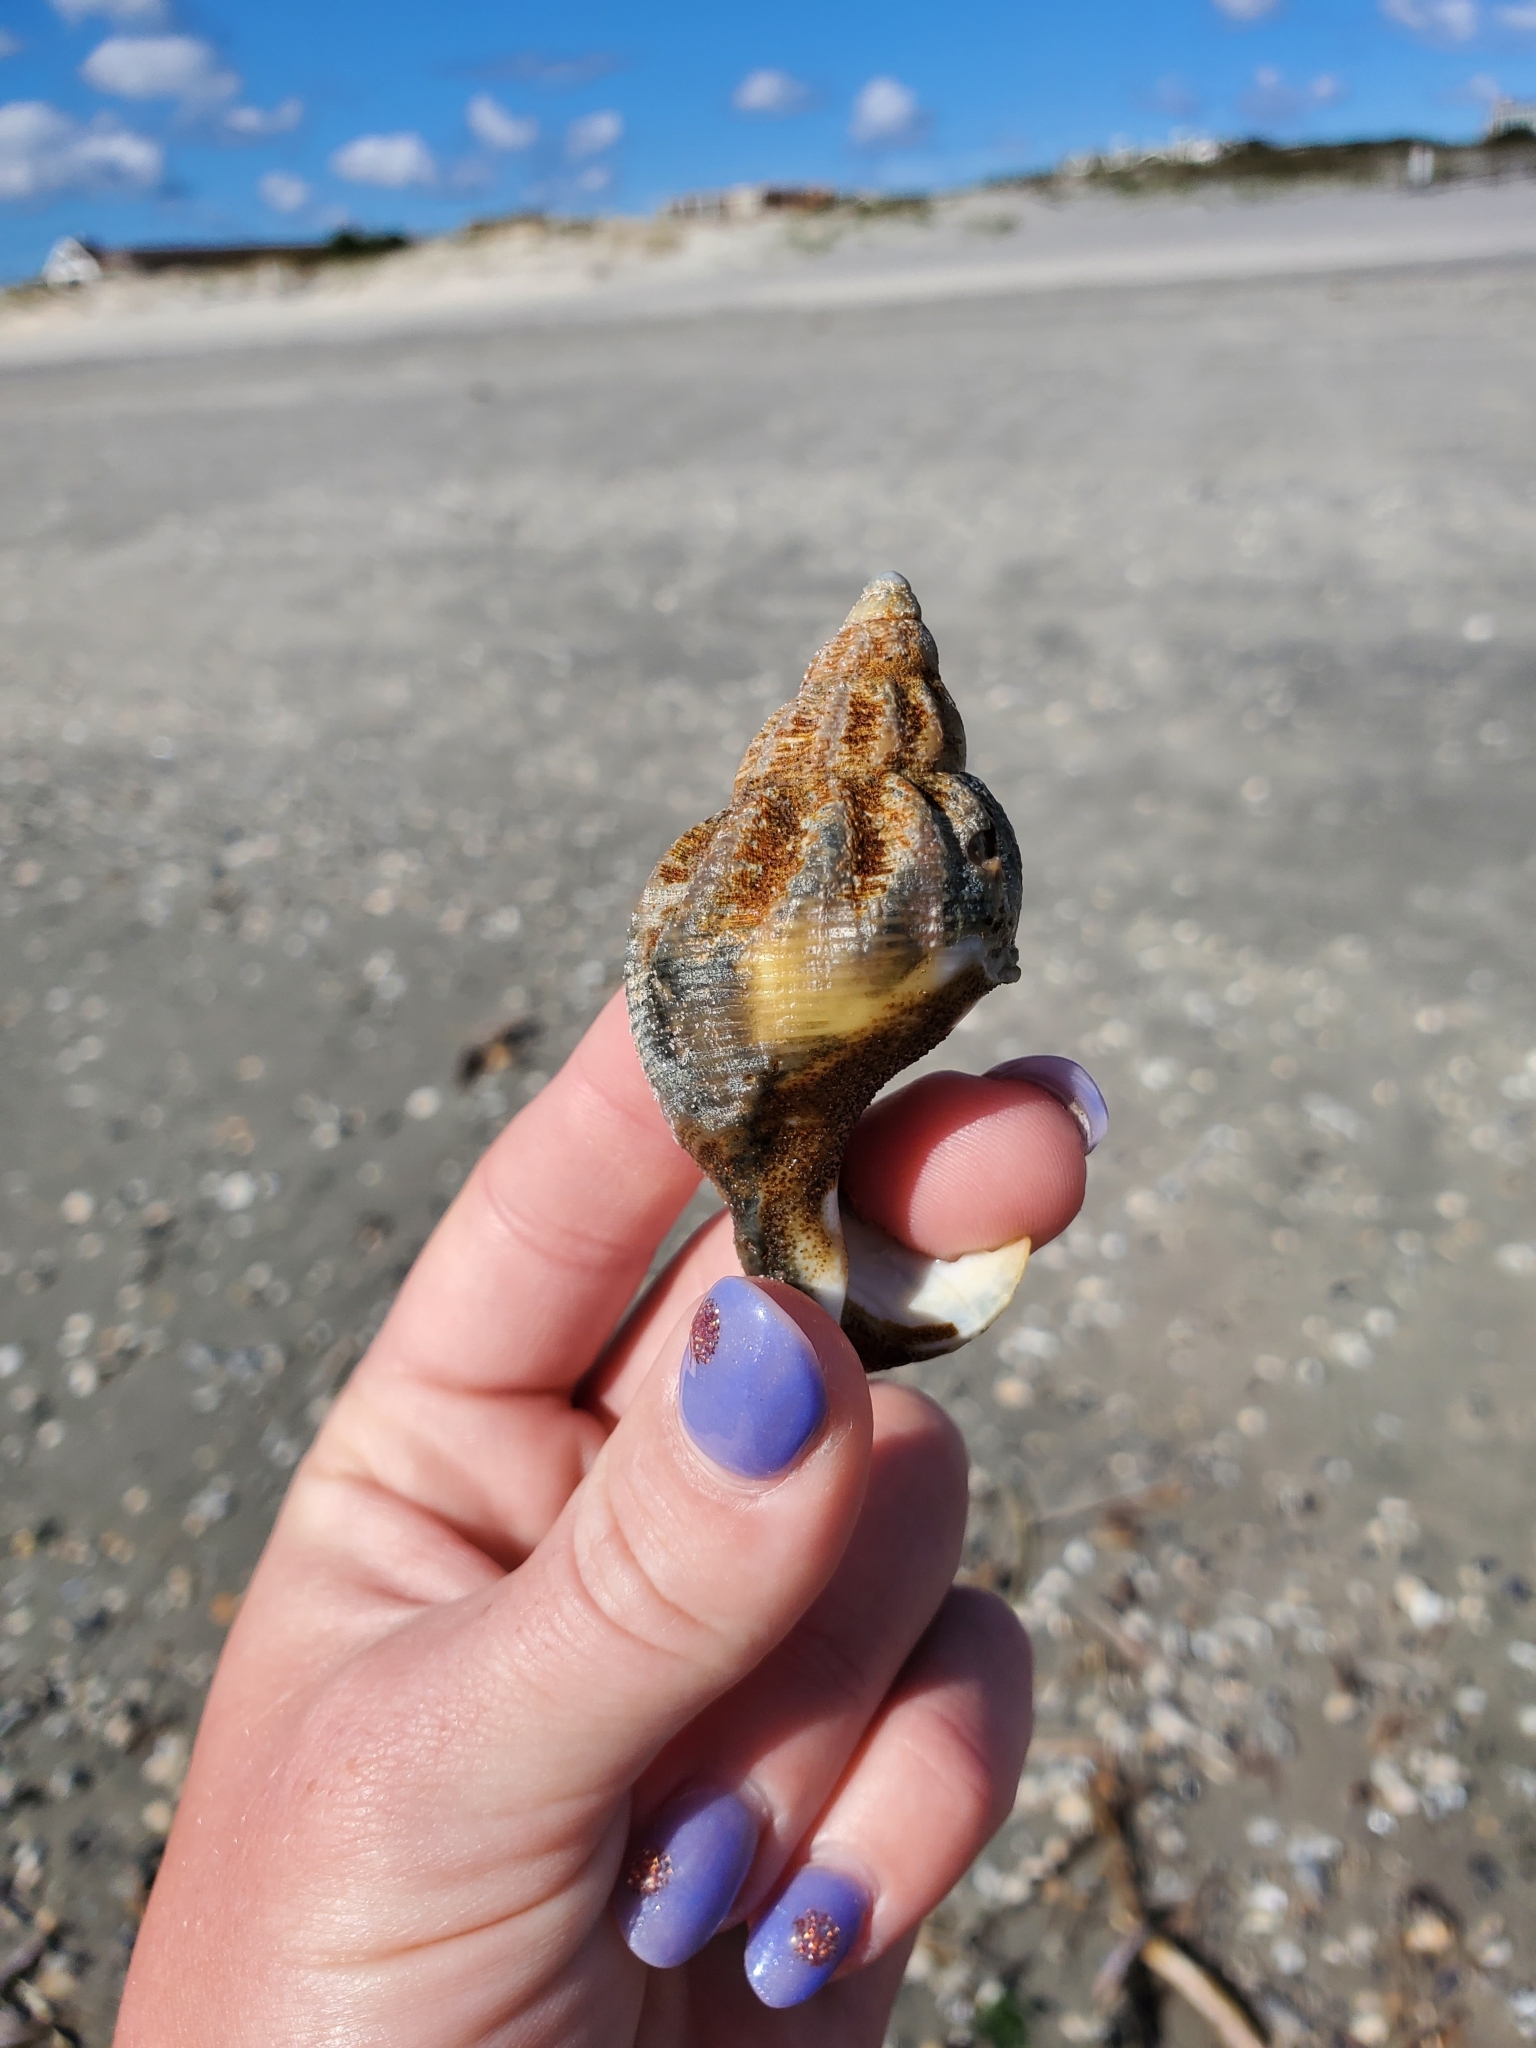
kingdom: Animalia
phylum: Mollusca
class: Gastropoda
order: Neogastropoda
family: Buccinidae
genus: Buccinum
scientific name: Buccinum undatum
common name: Common whelk
